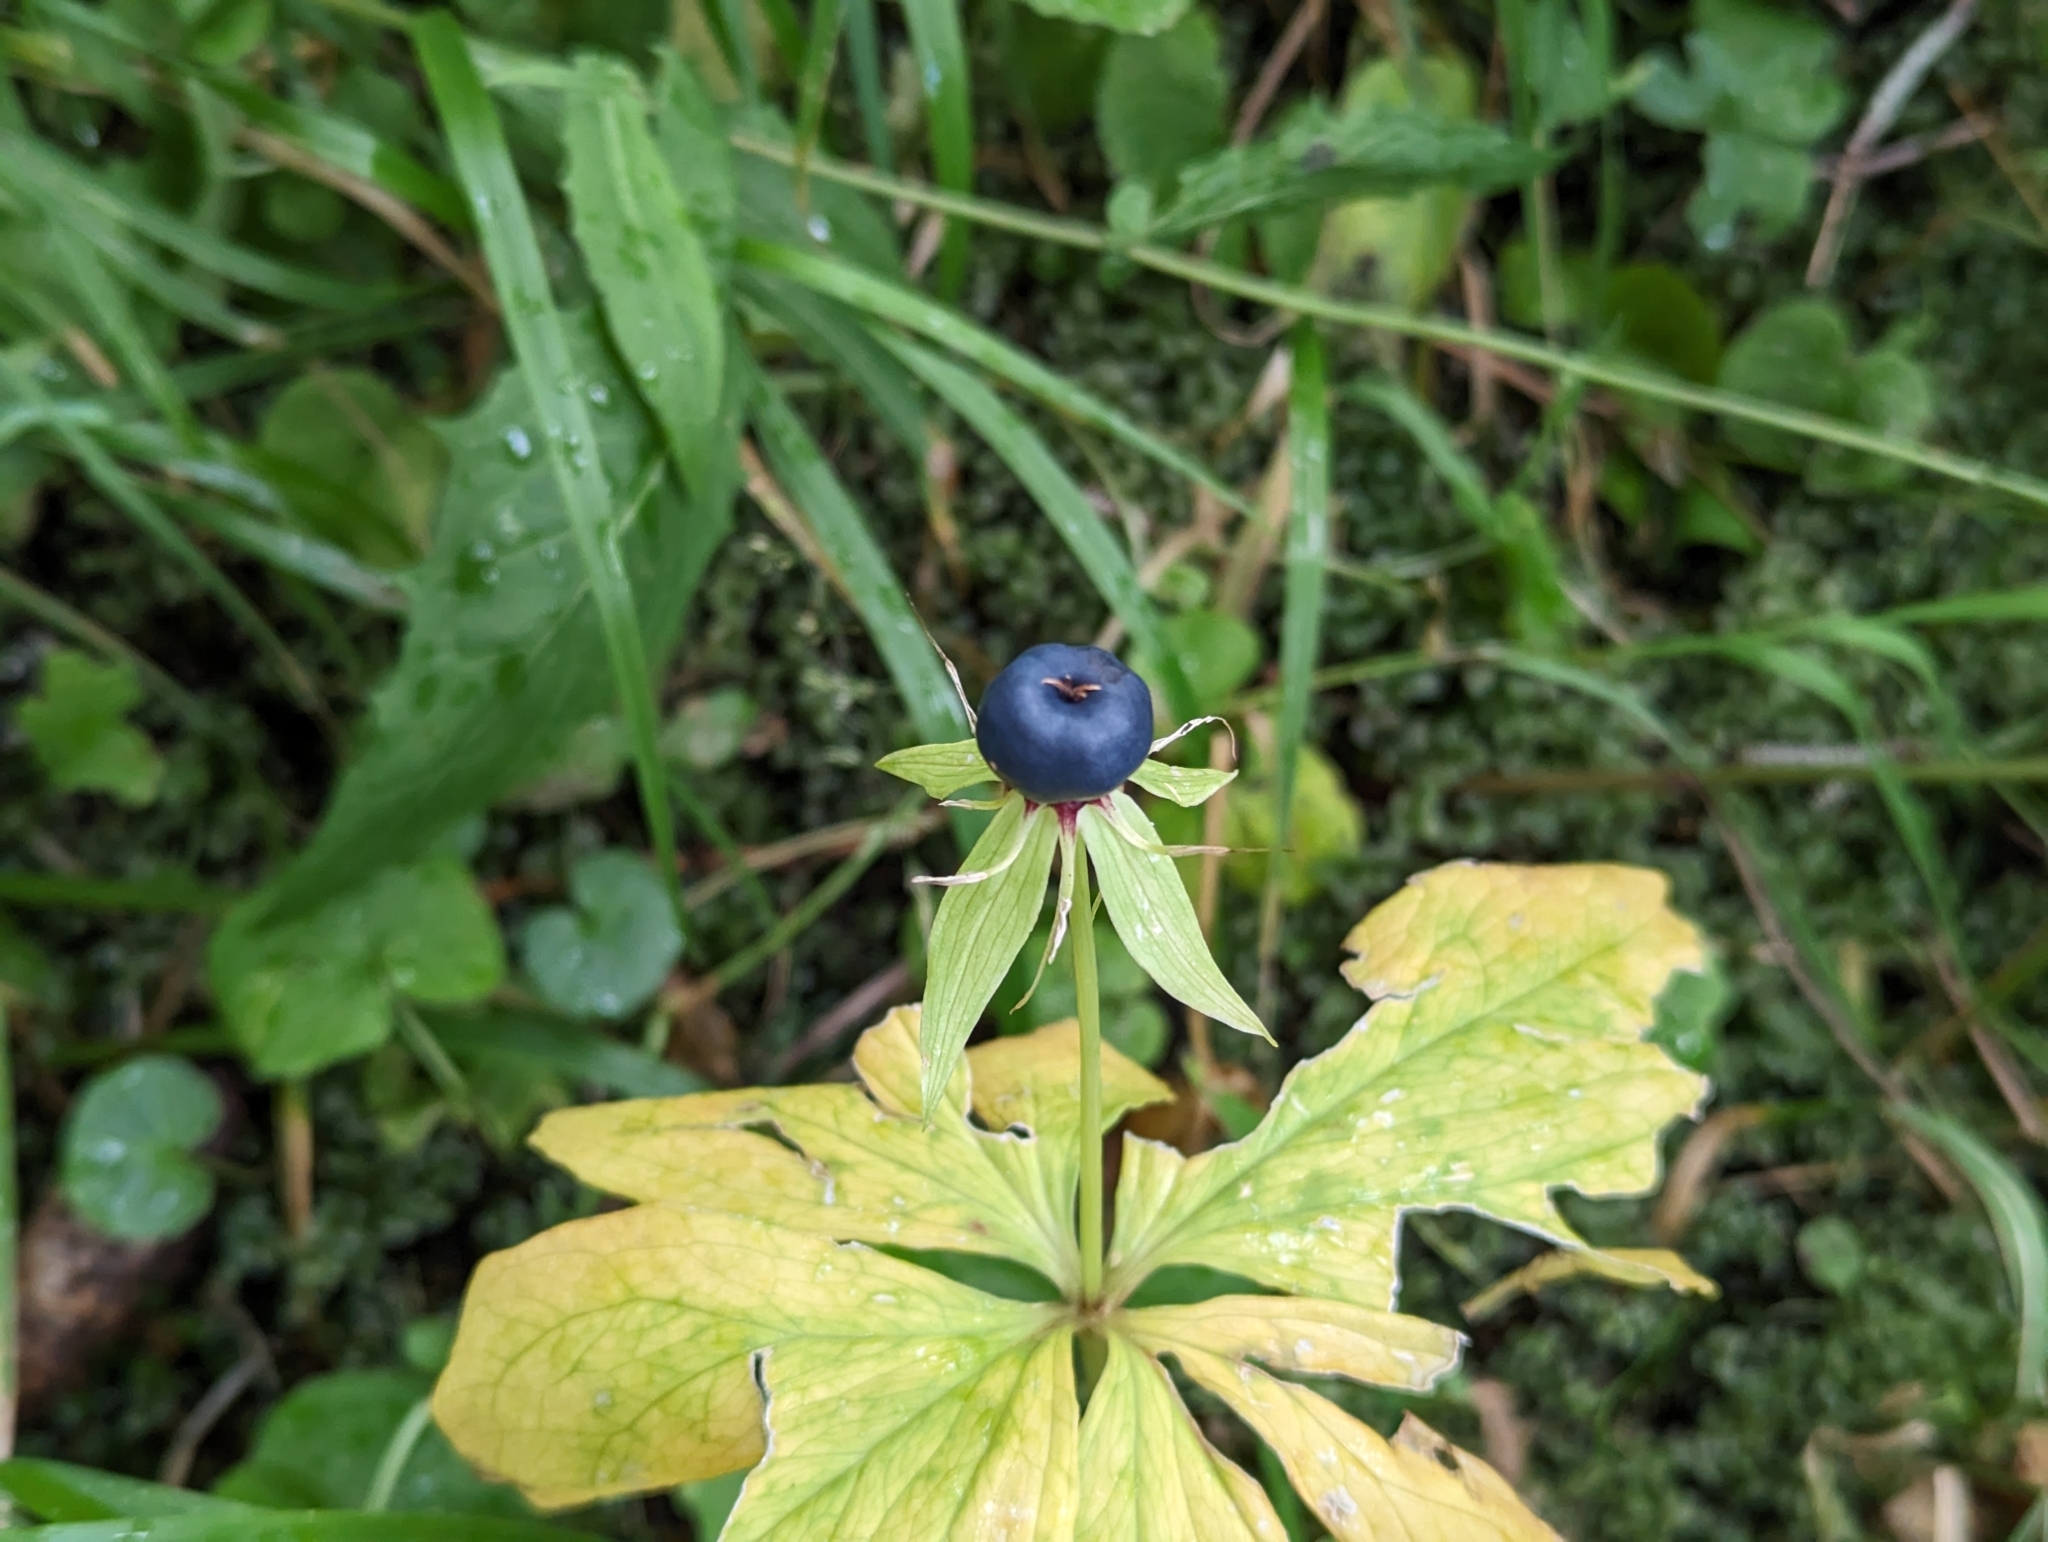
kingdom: Plantae
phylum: Tracheophyta
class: Liliopsida
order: Liliales
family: Melanthiaceae
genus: Paris
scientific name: Paris quadrifolia
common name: Herb-paris
